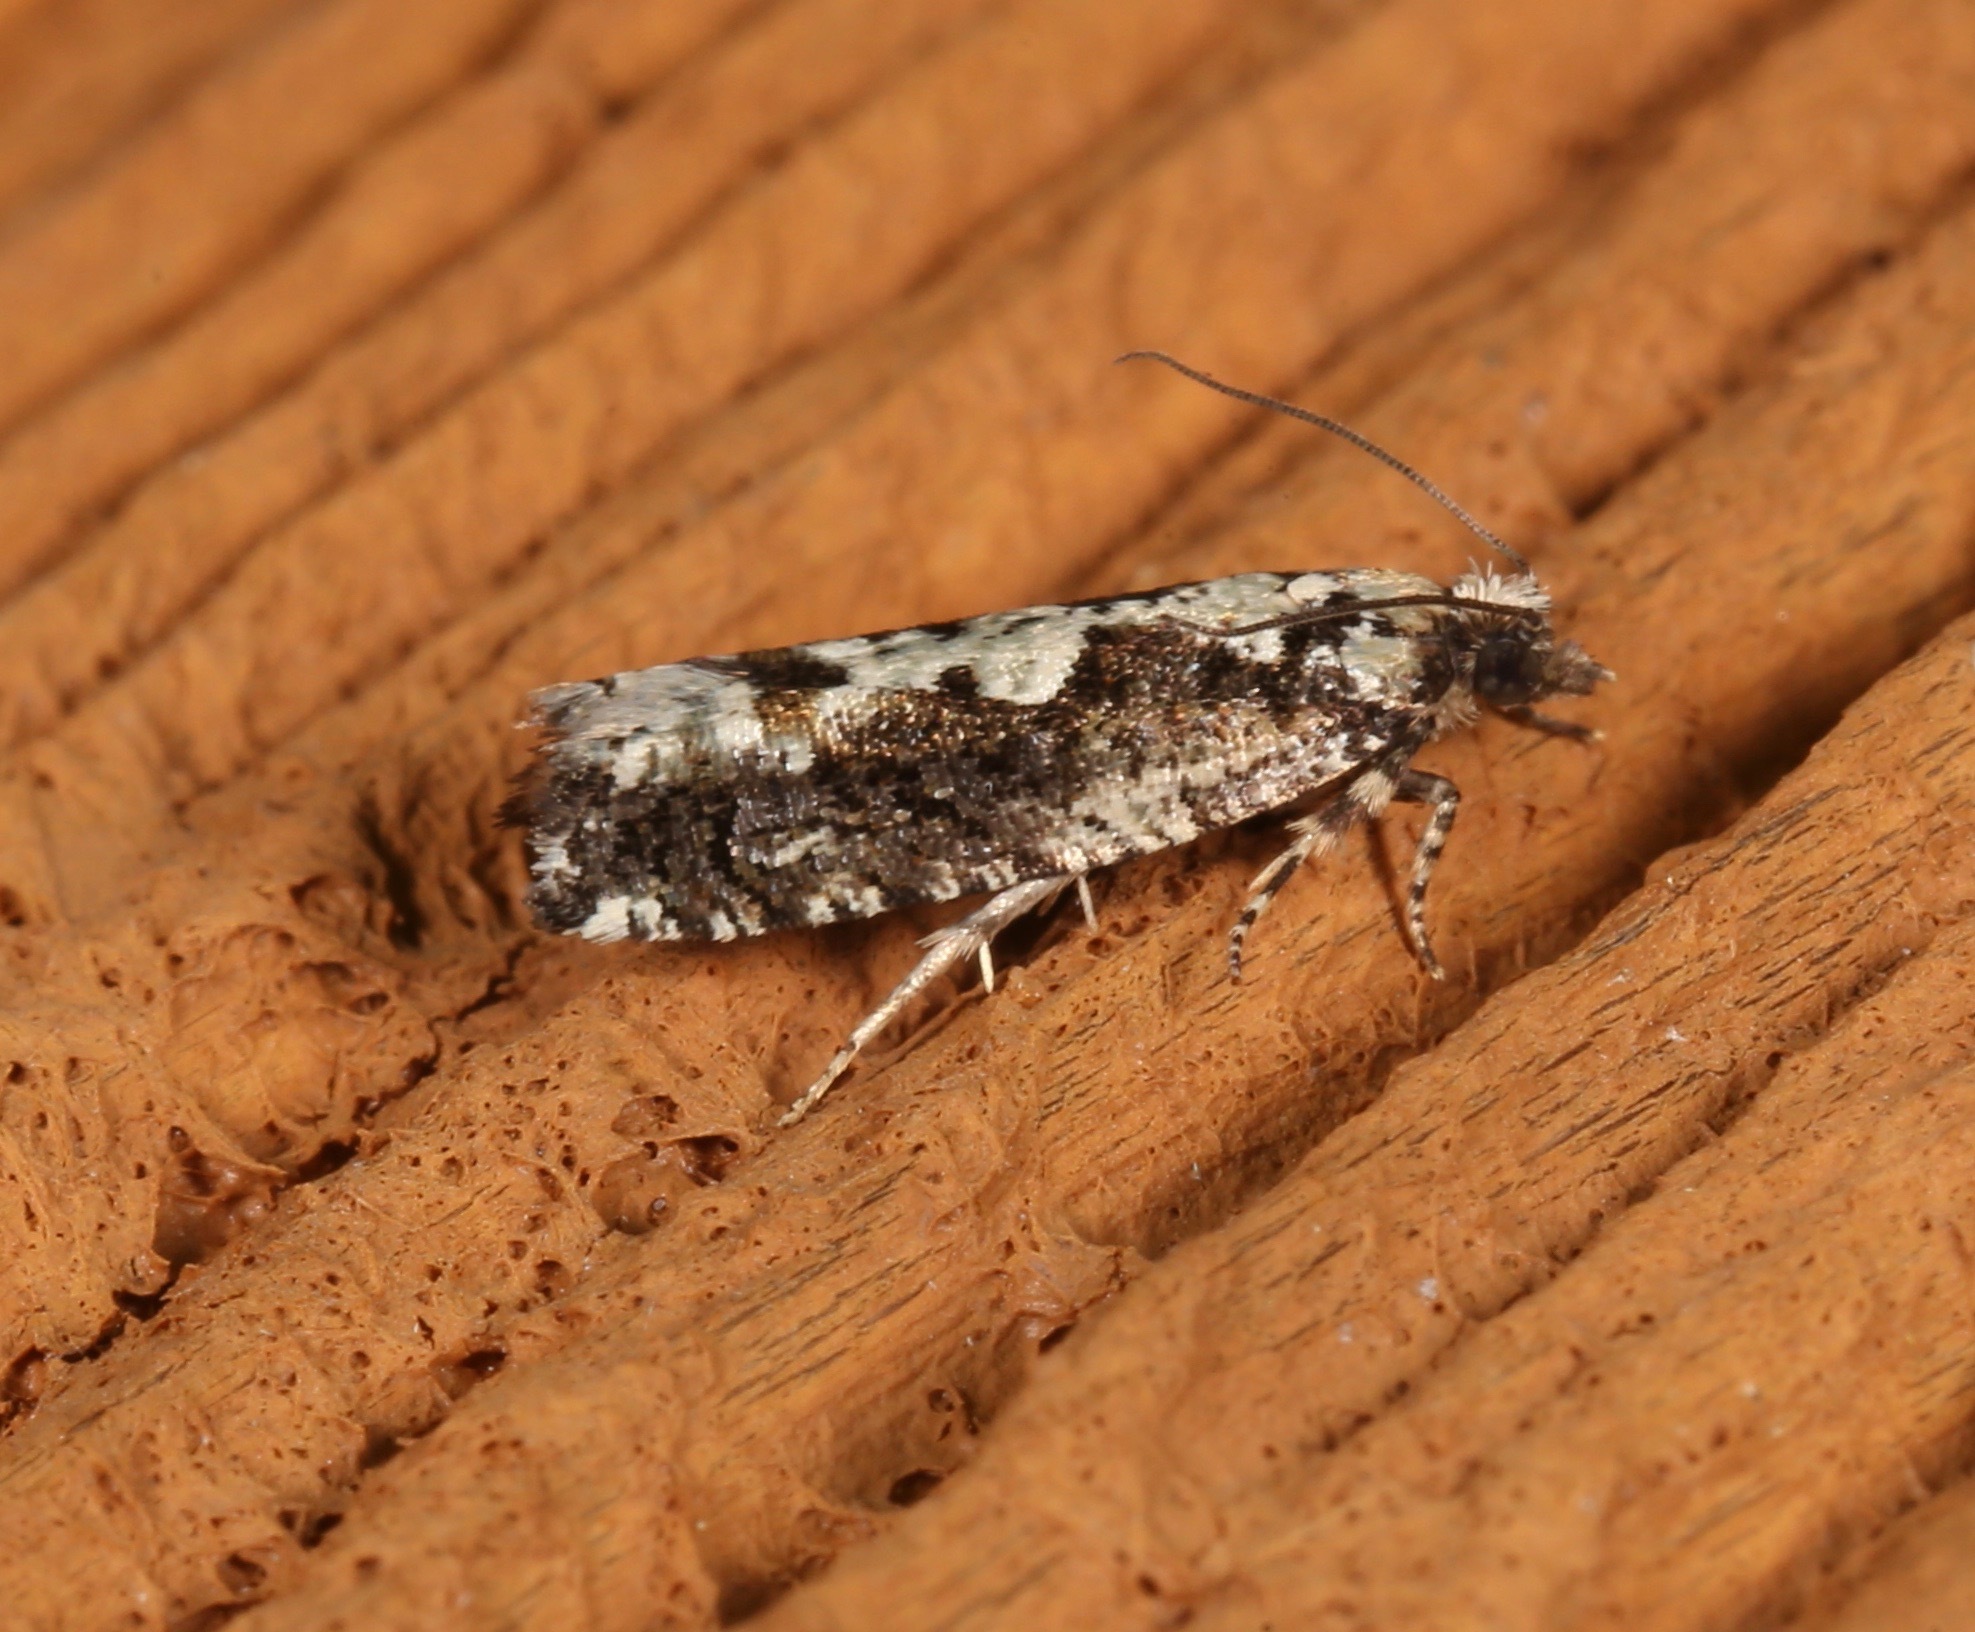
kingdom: Animalia
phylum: Arthropoda
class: Insecta
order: Lepidoptera
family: Tortricidae
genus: Chimoptesis
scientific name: Chimoptesis pennsylvaniana
